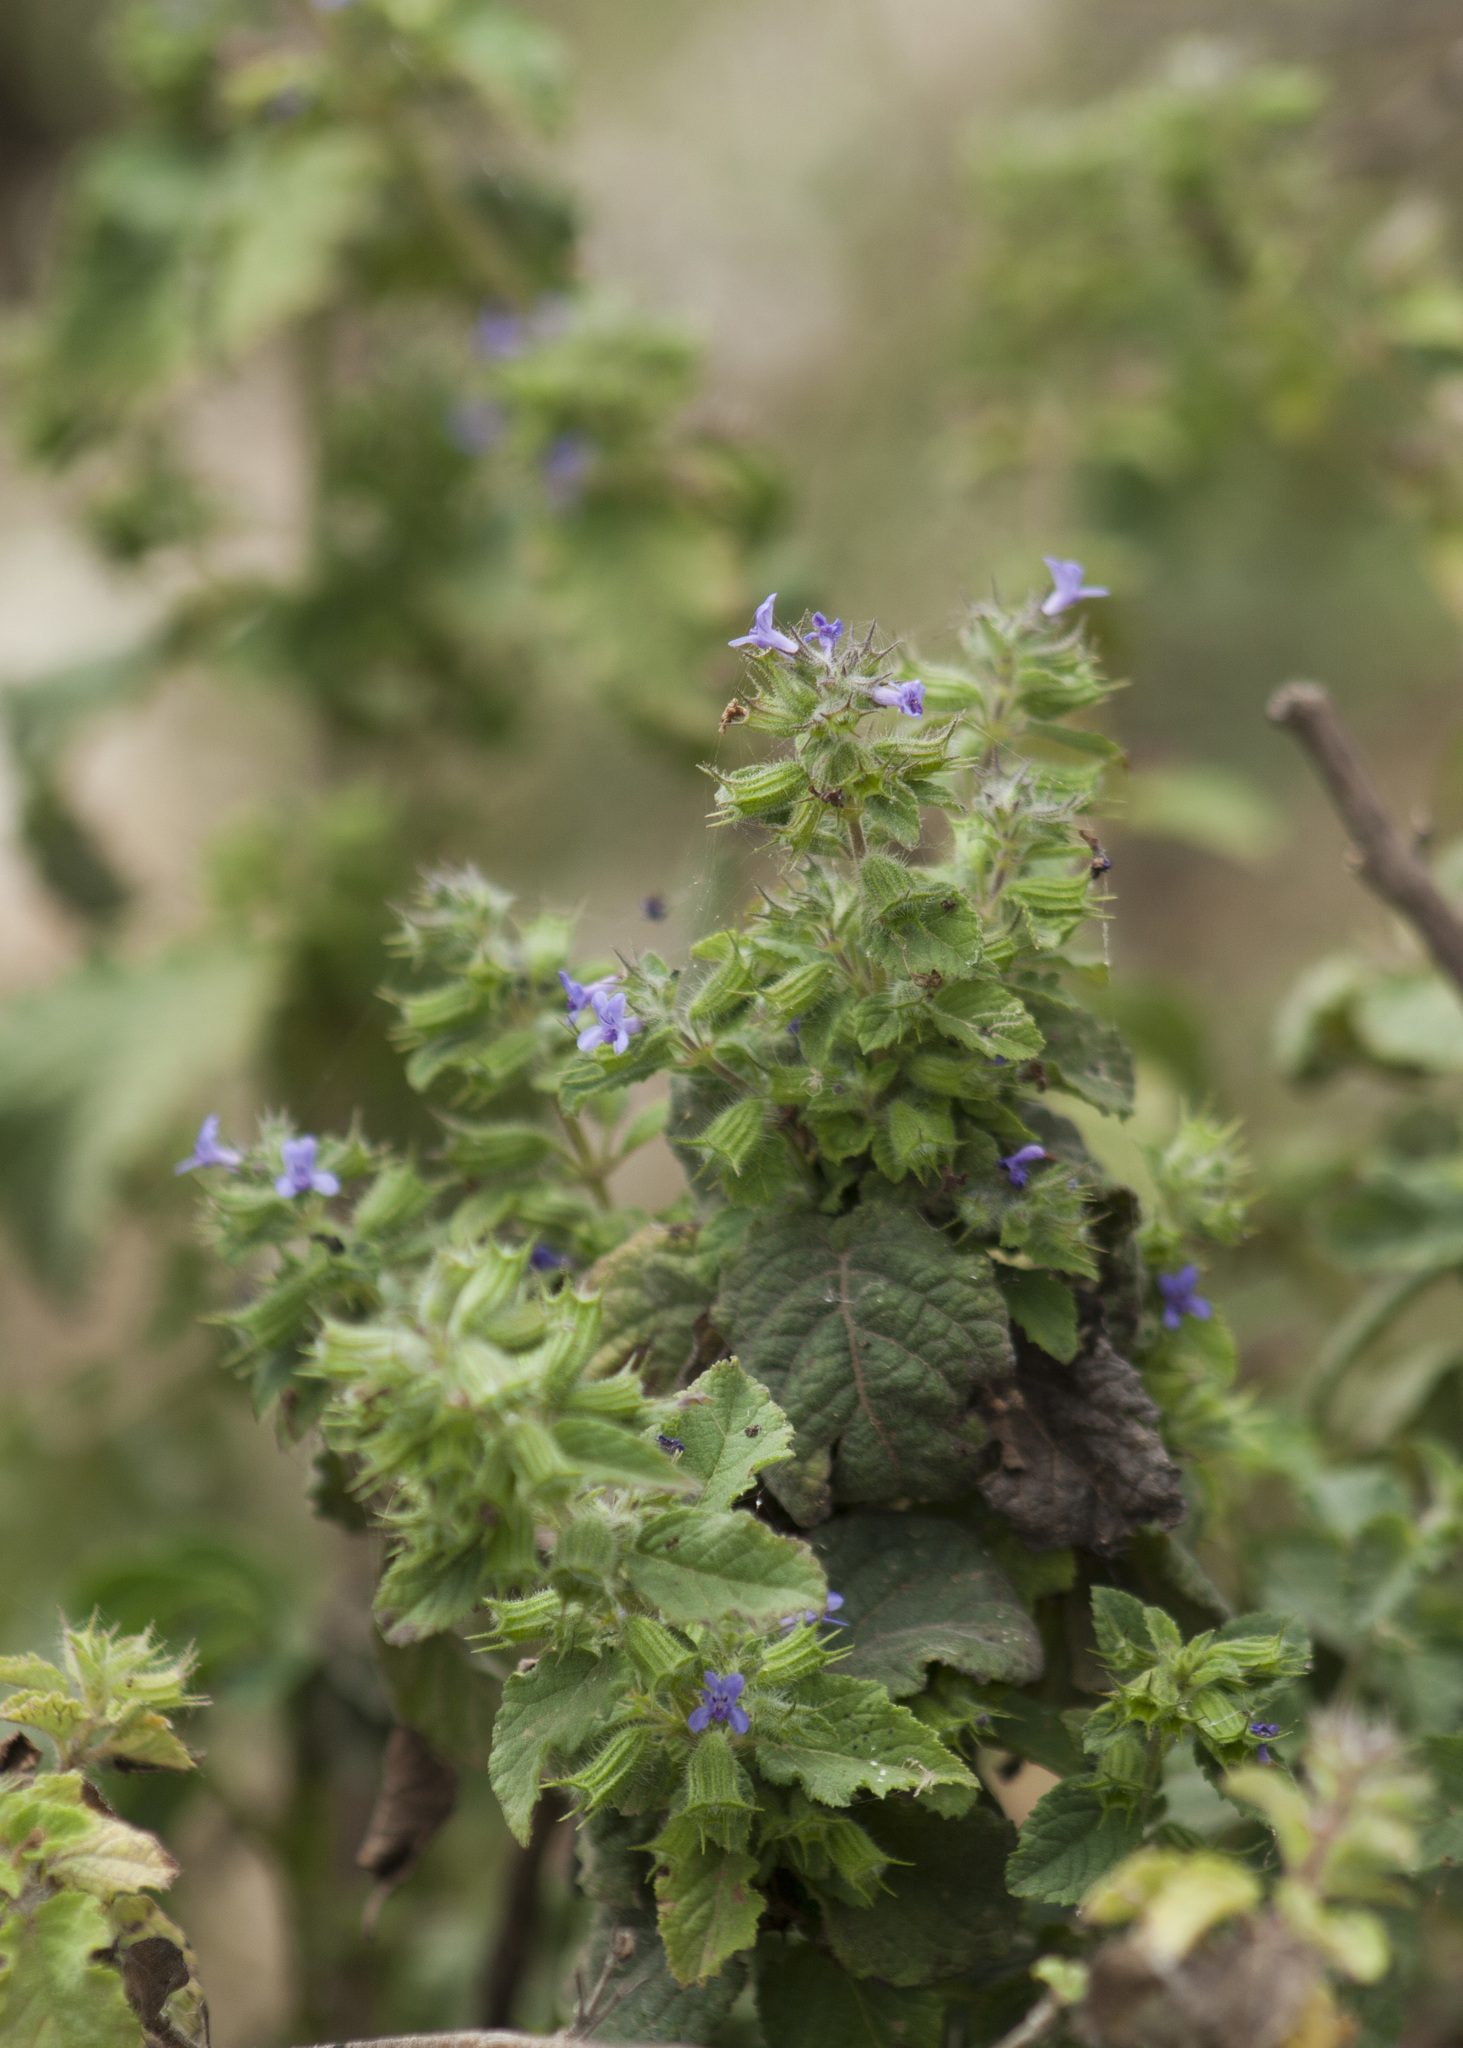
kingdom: Plantae
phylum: Tracheophyta
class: Magnoliopsida
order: Lamiales
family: Lamiaceae
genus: Mesosphaerum
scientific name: Mesosphaerum suaveolens
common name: Pignut
